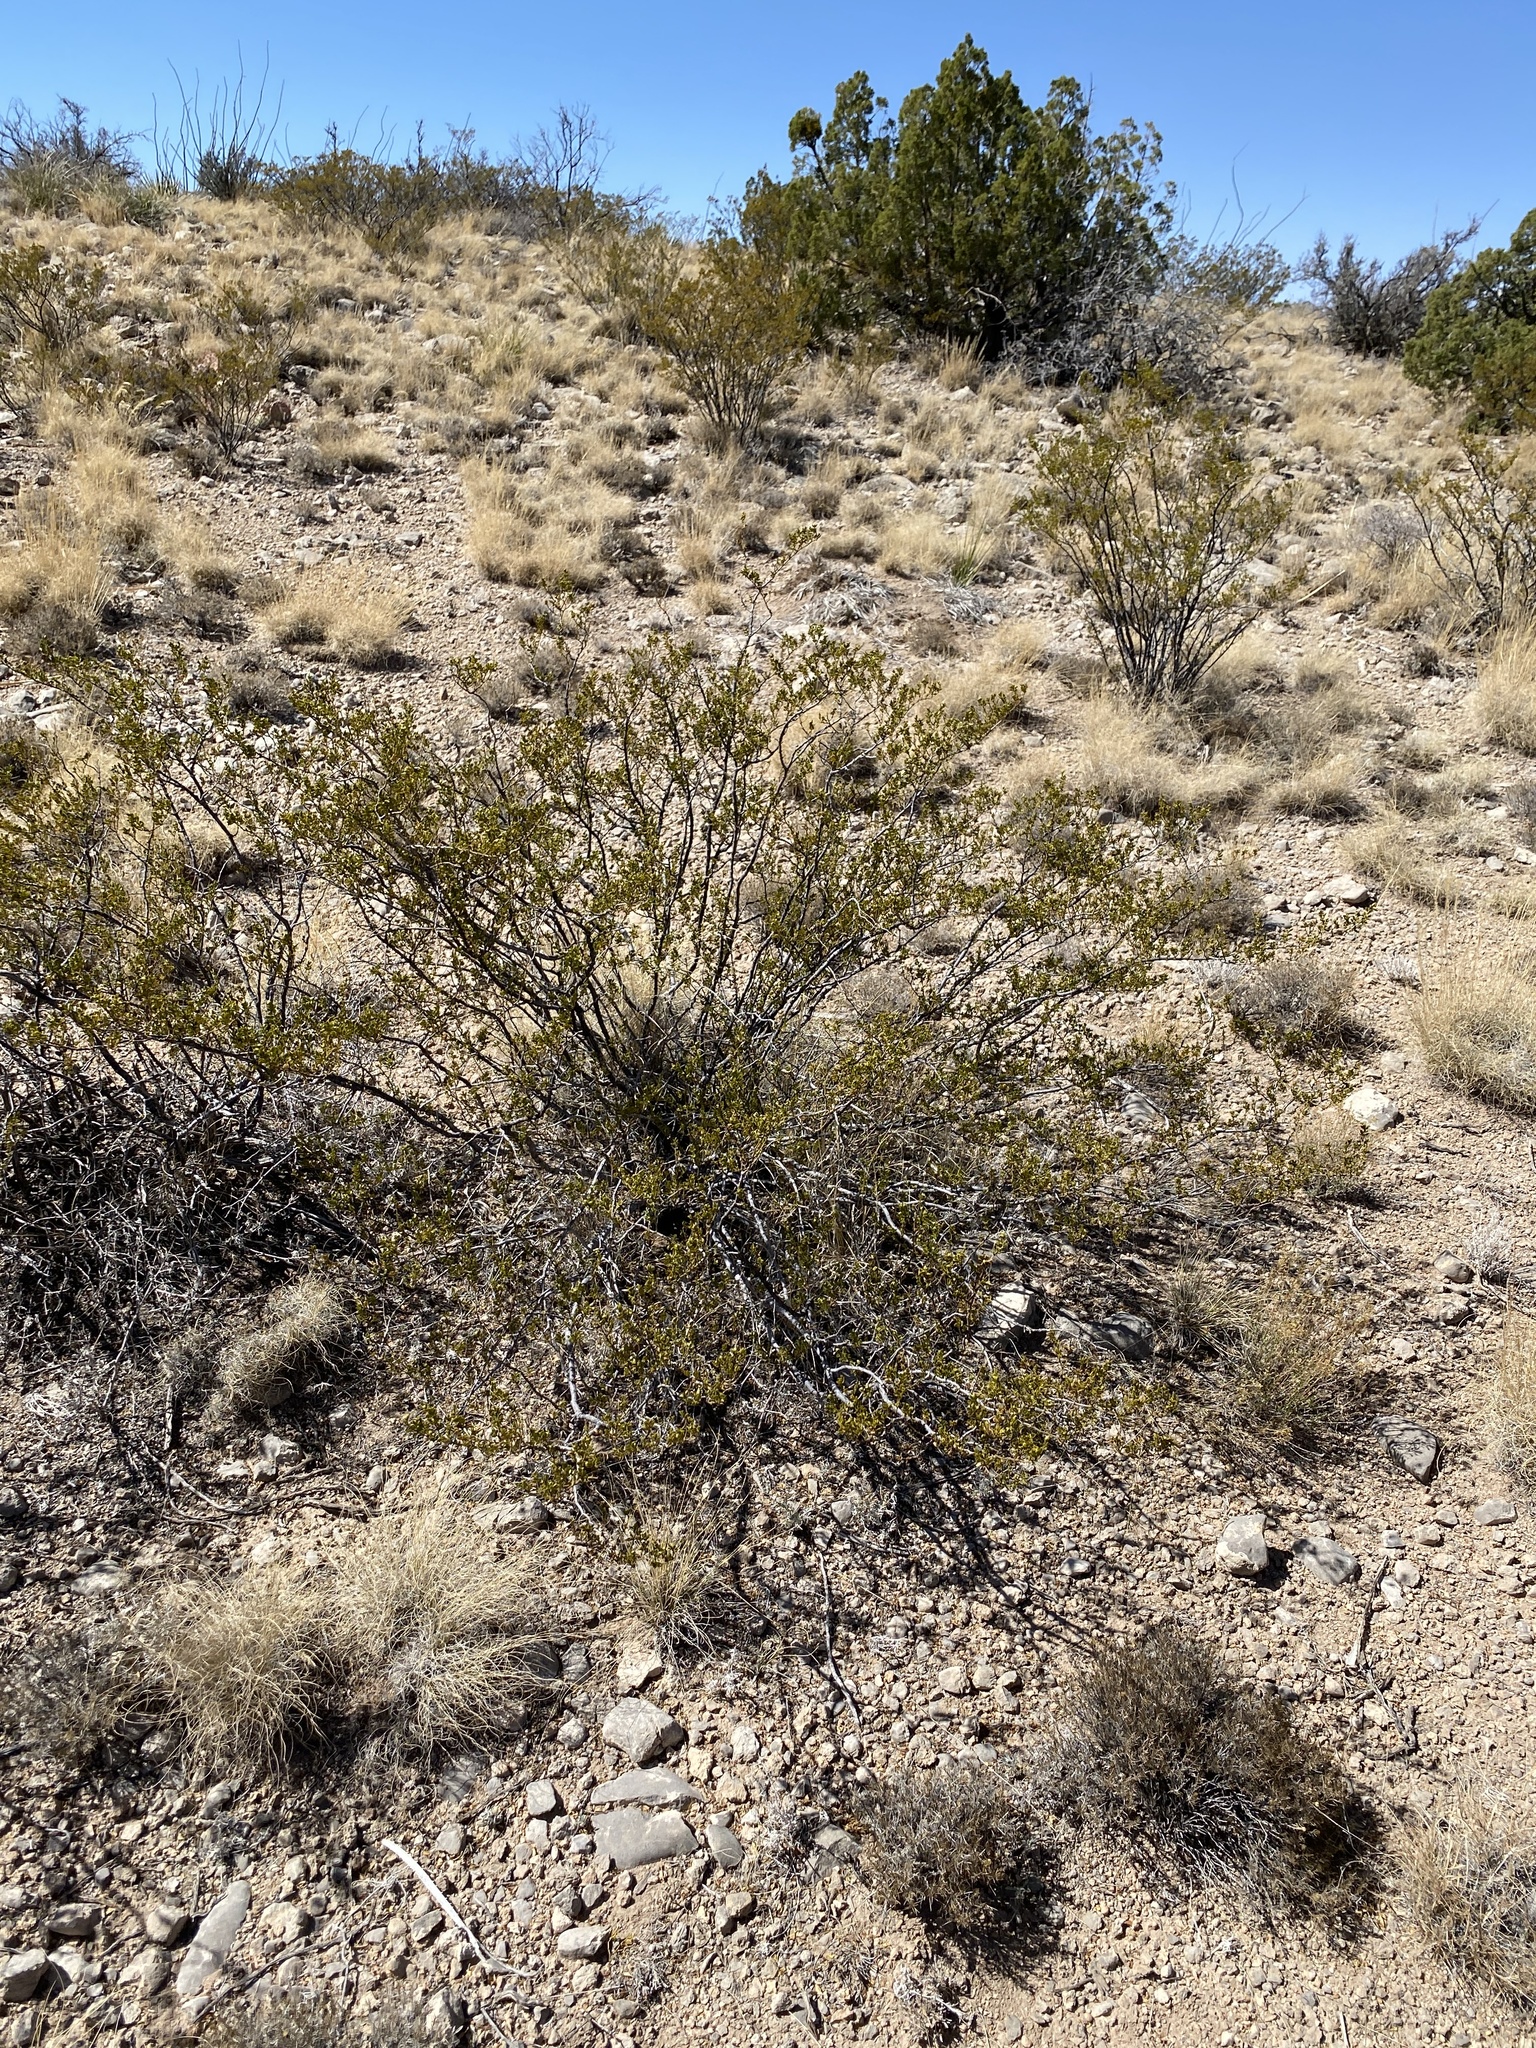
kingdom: Plantae
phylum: Tracheophyta
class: Magnoliopsida
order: Zygophyllales
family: Zygophyllaceae
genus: Larrea
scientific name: Larrea tridentata
